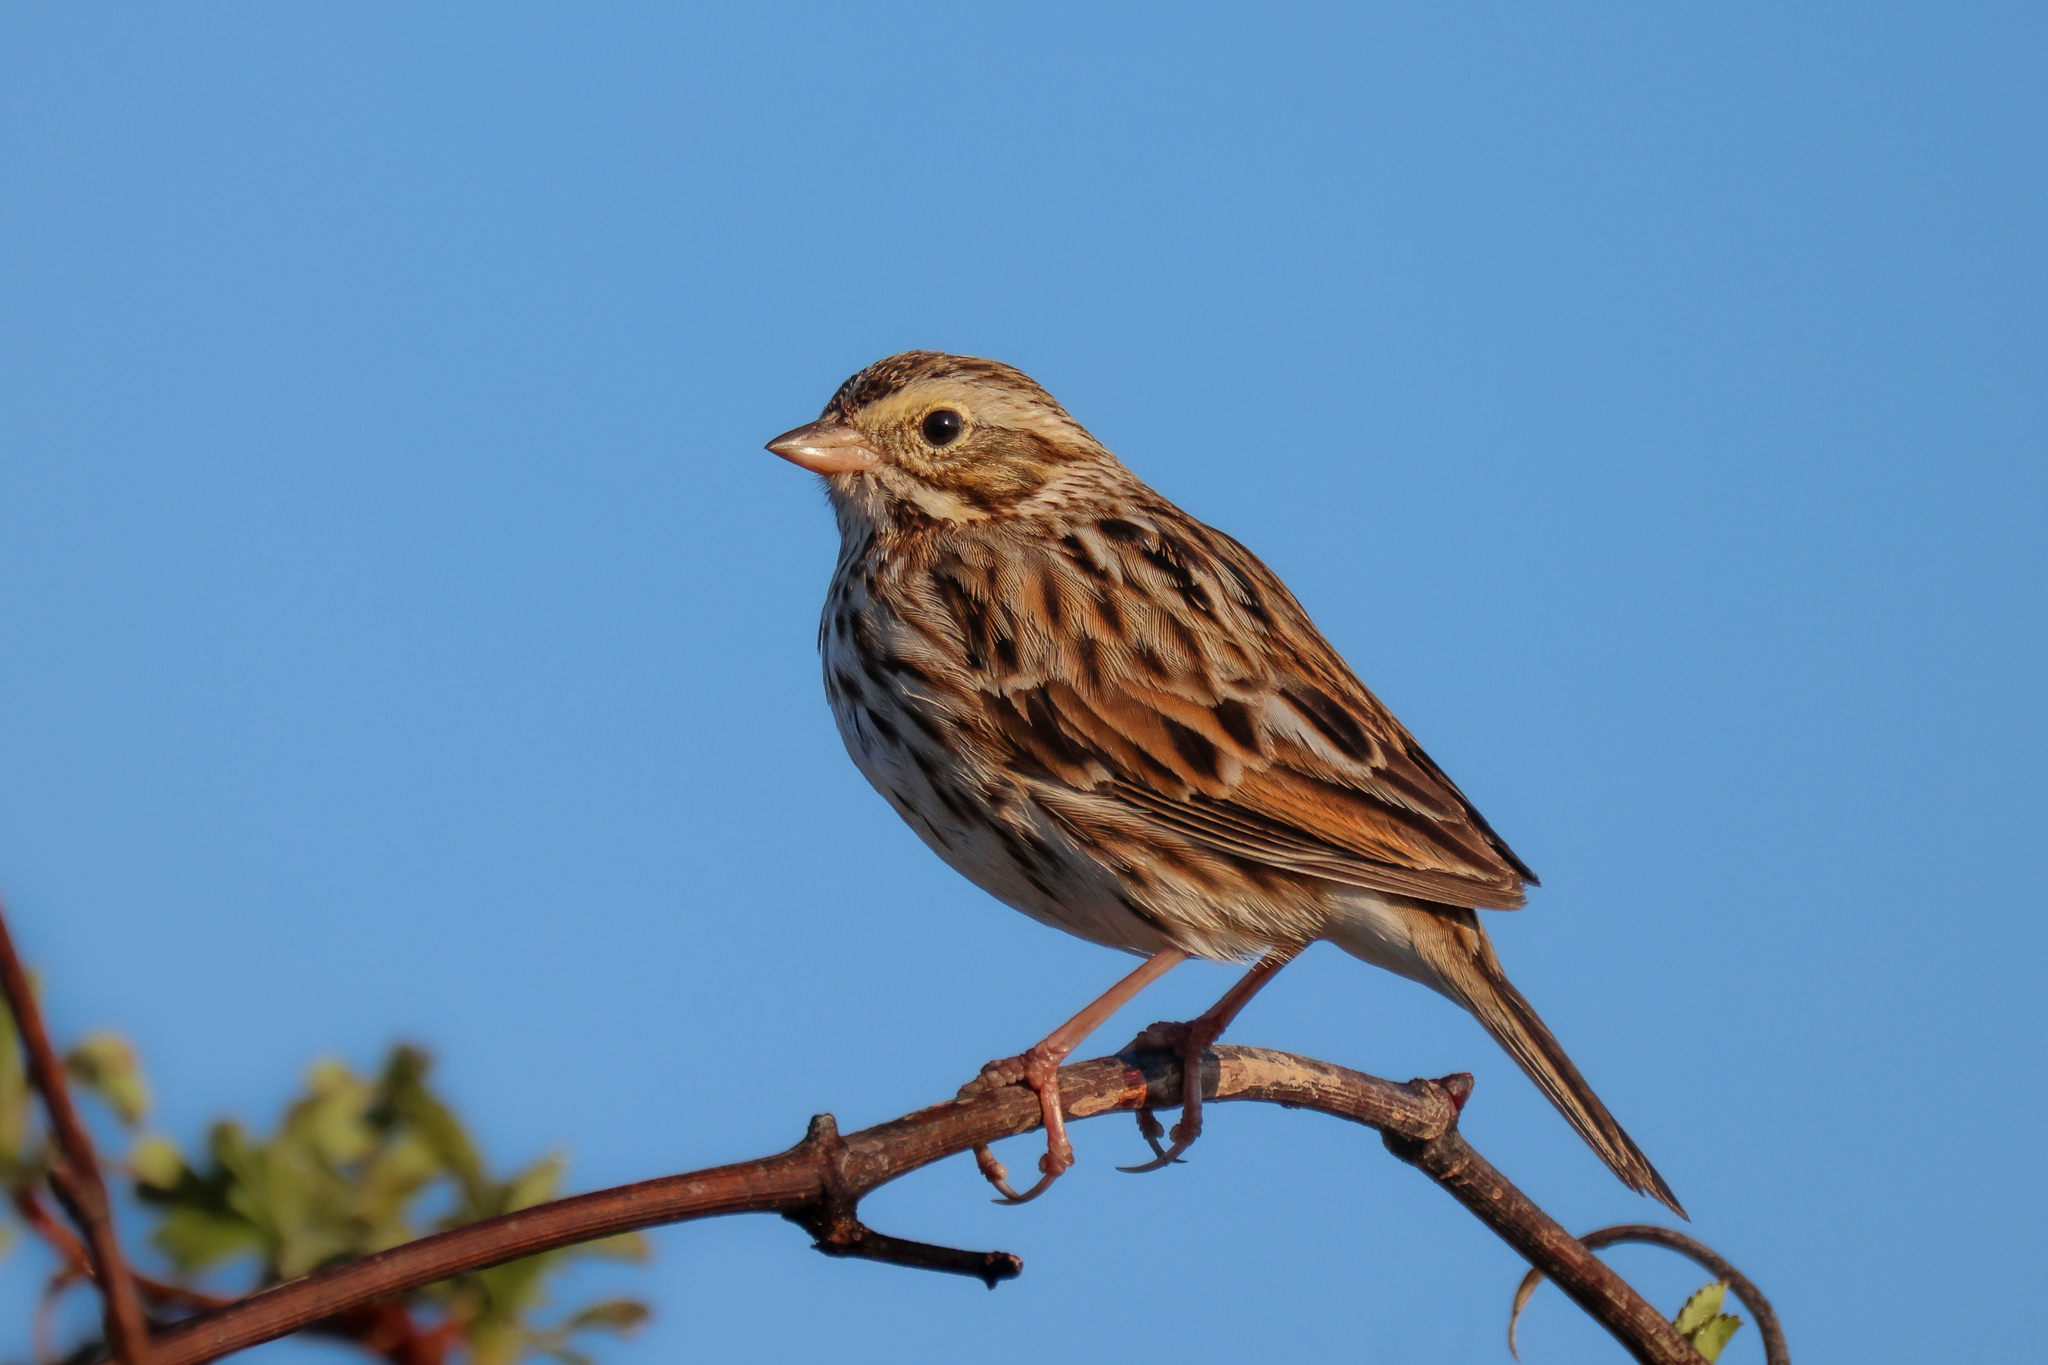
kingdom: Animalia
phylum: Chordata
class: Aves
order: Passeriformes
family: Passerellidae
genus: Passerculus
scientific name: Passerculus sandwichensis
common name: Savannah sparrow
